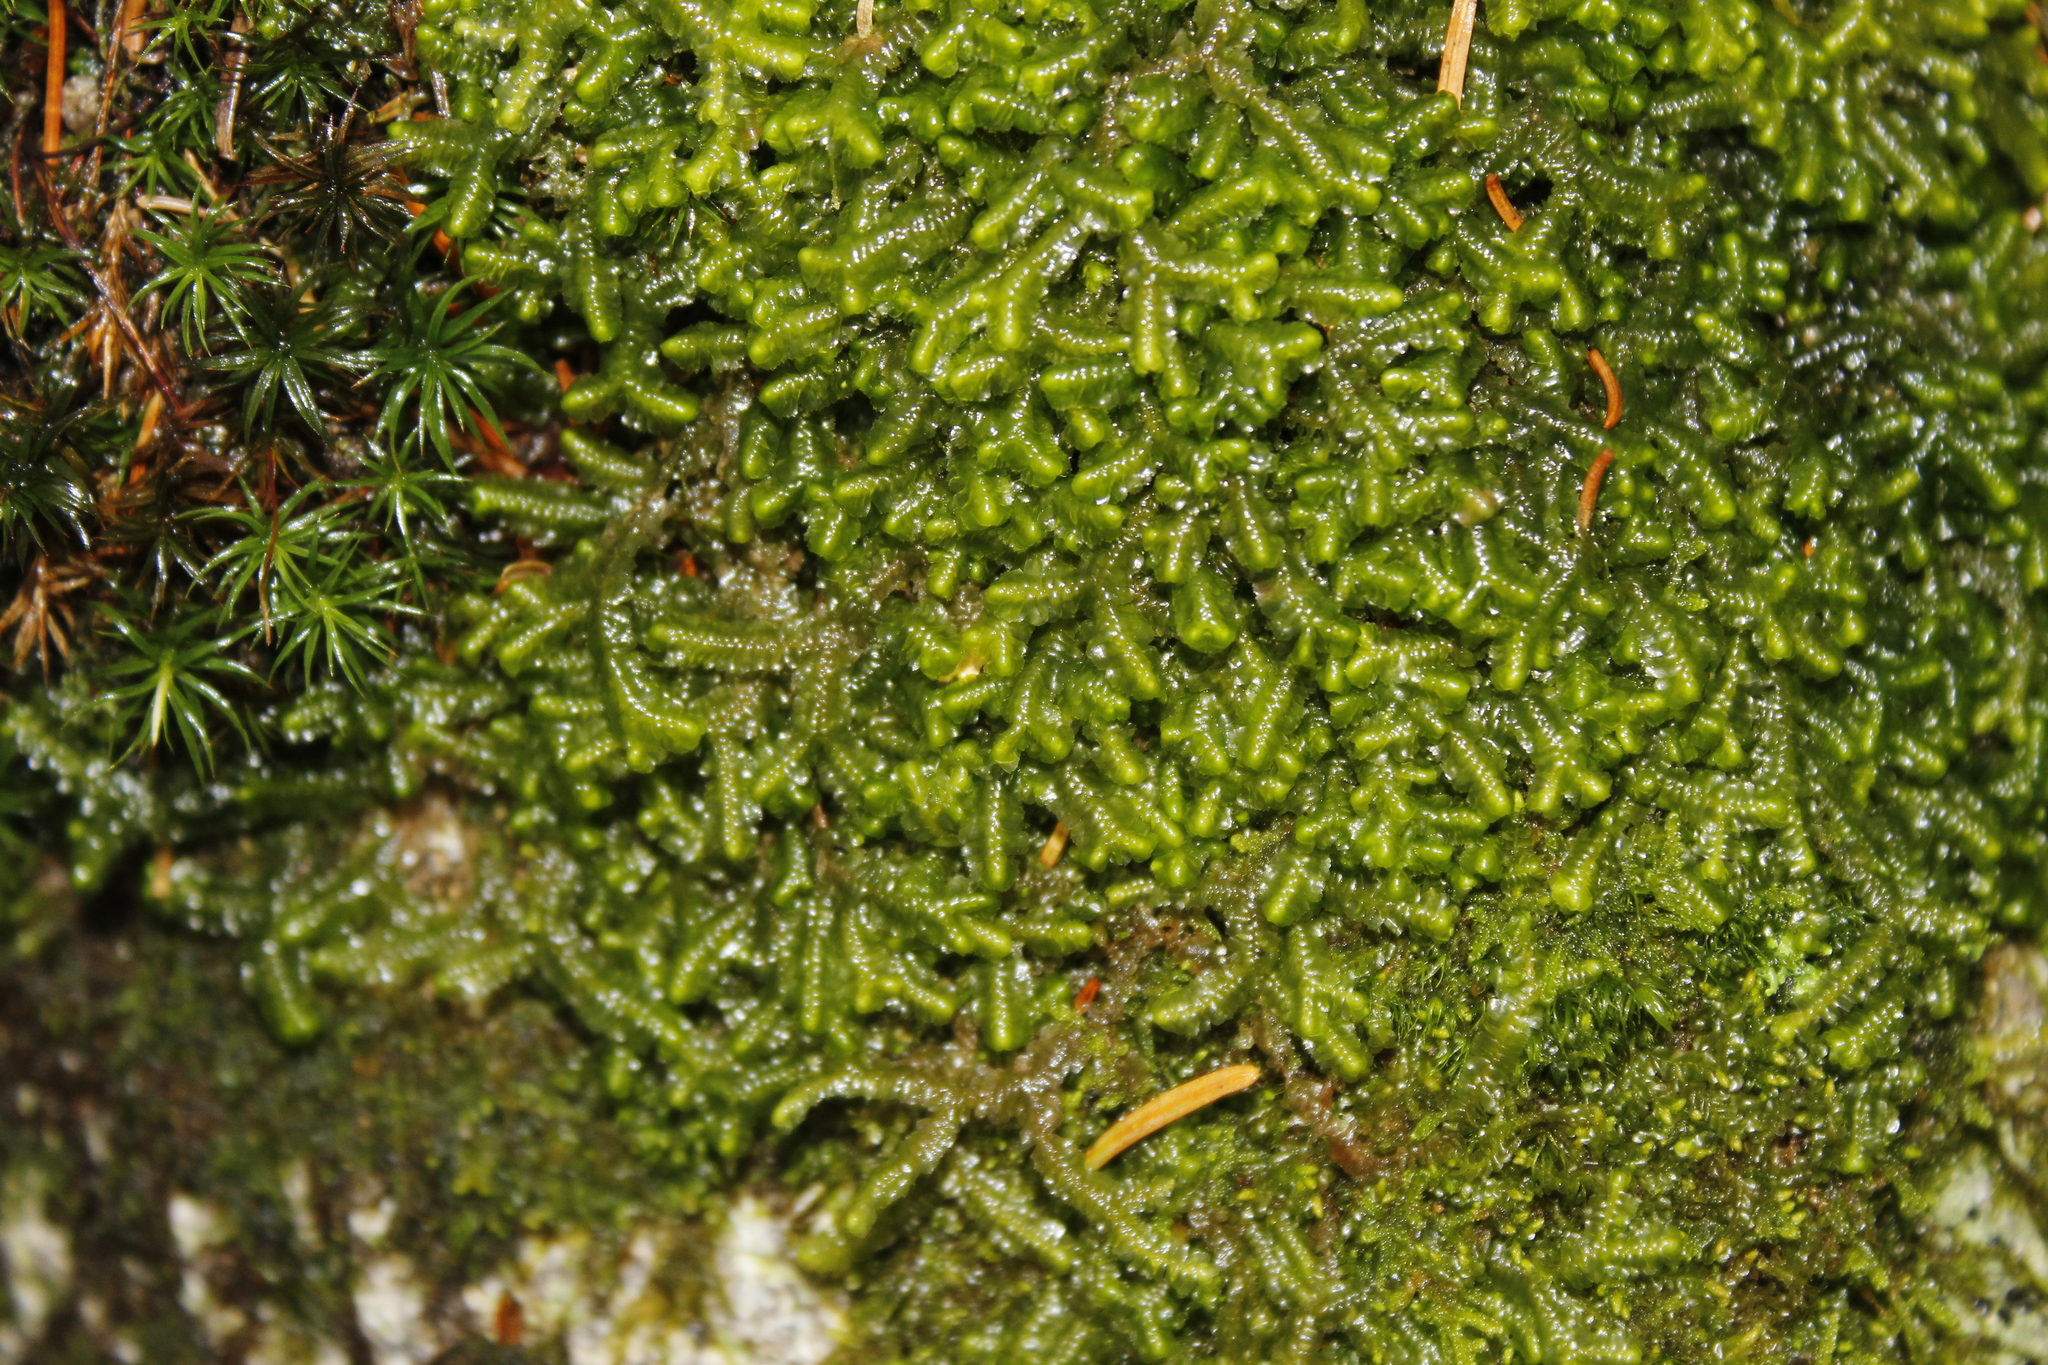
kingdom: Plantae
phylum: Marchantiophyta
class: Jungermanniopsida
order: Jungermanniales
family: Lepidoziaceae
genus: Bazzania
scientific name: Bazzania trilobata
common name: Three-lobed whipwort
